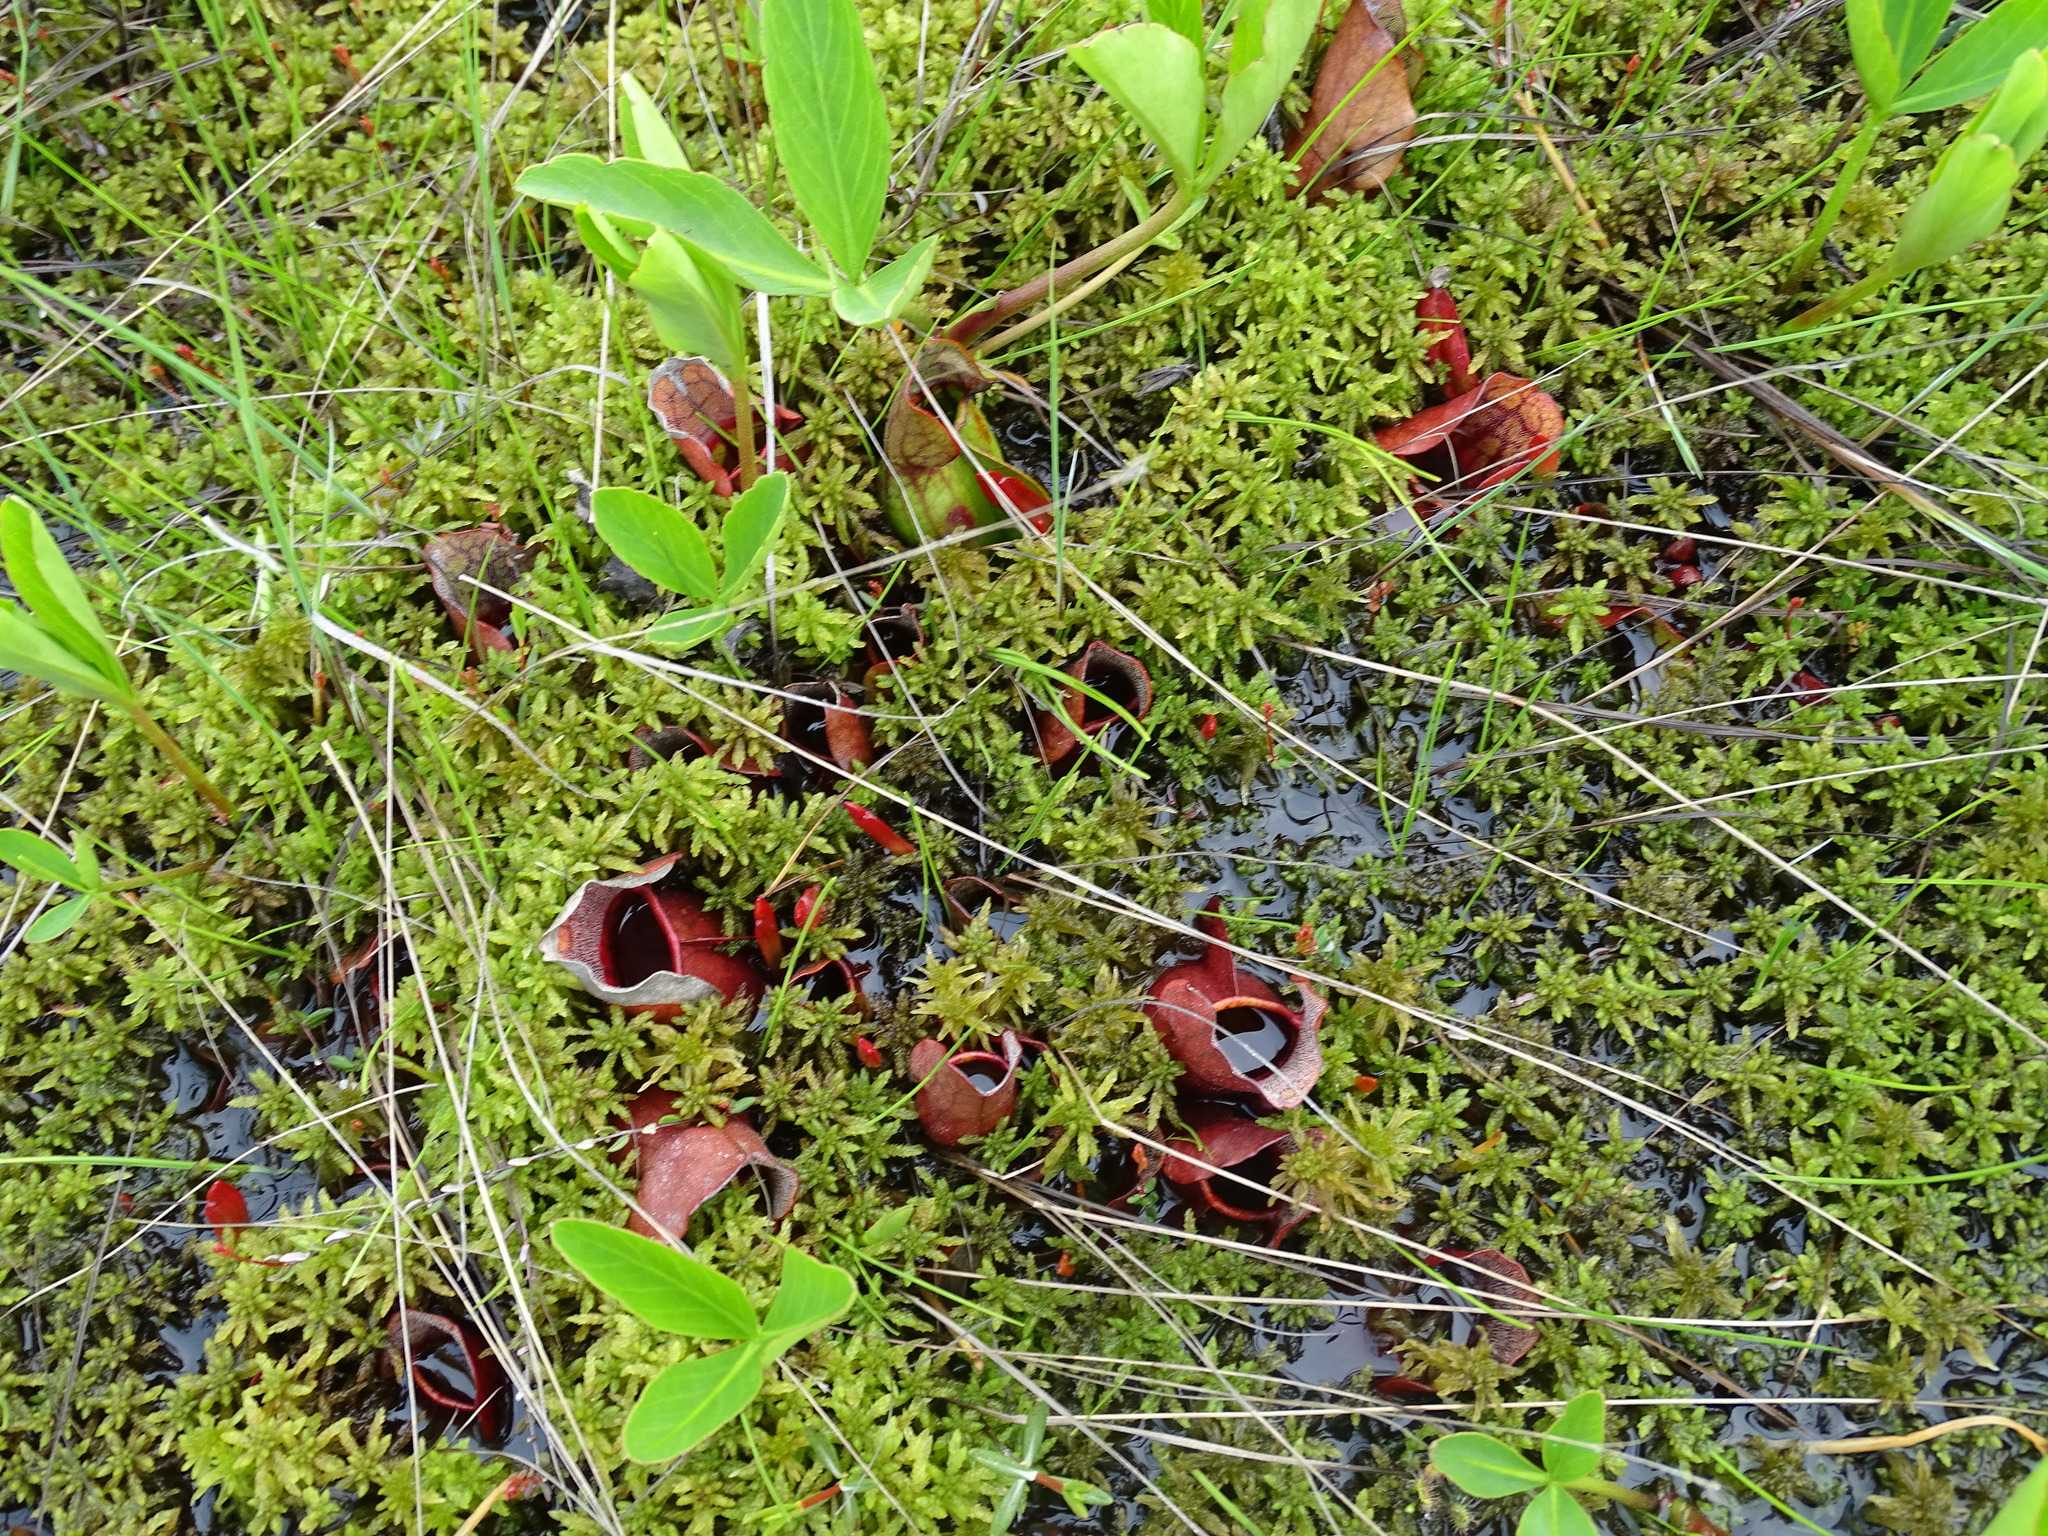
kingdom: Plantae
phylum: Tracheophyta
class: Magnoliopsida
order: Ericales
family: Sarraceniaceae
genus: Sarracenia
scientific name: Sarracenia purpurea
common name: Pitcherplant
